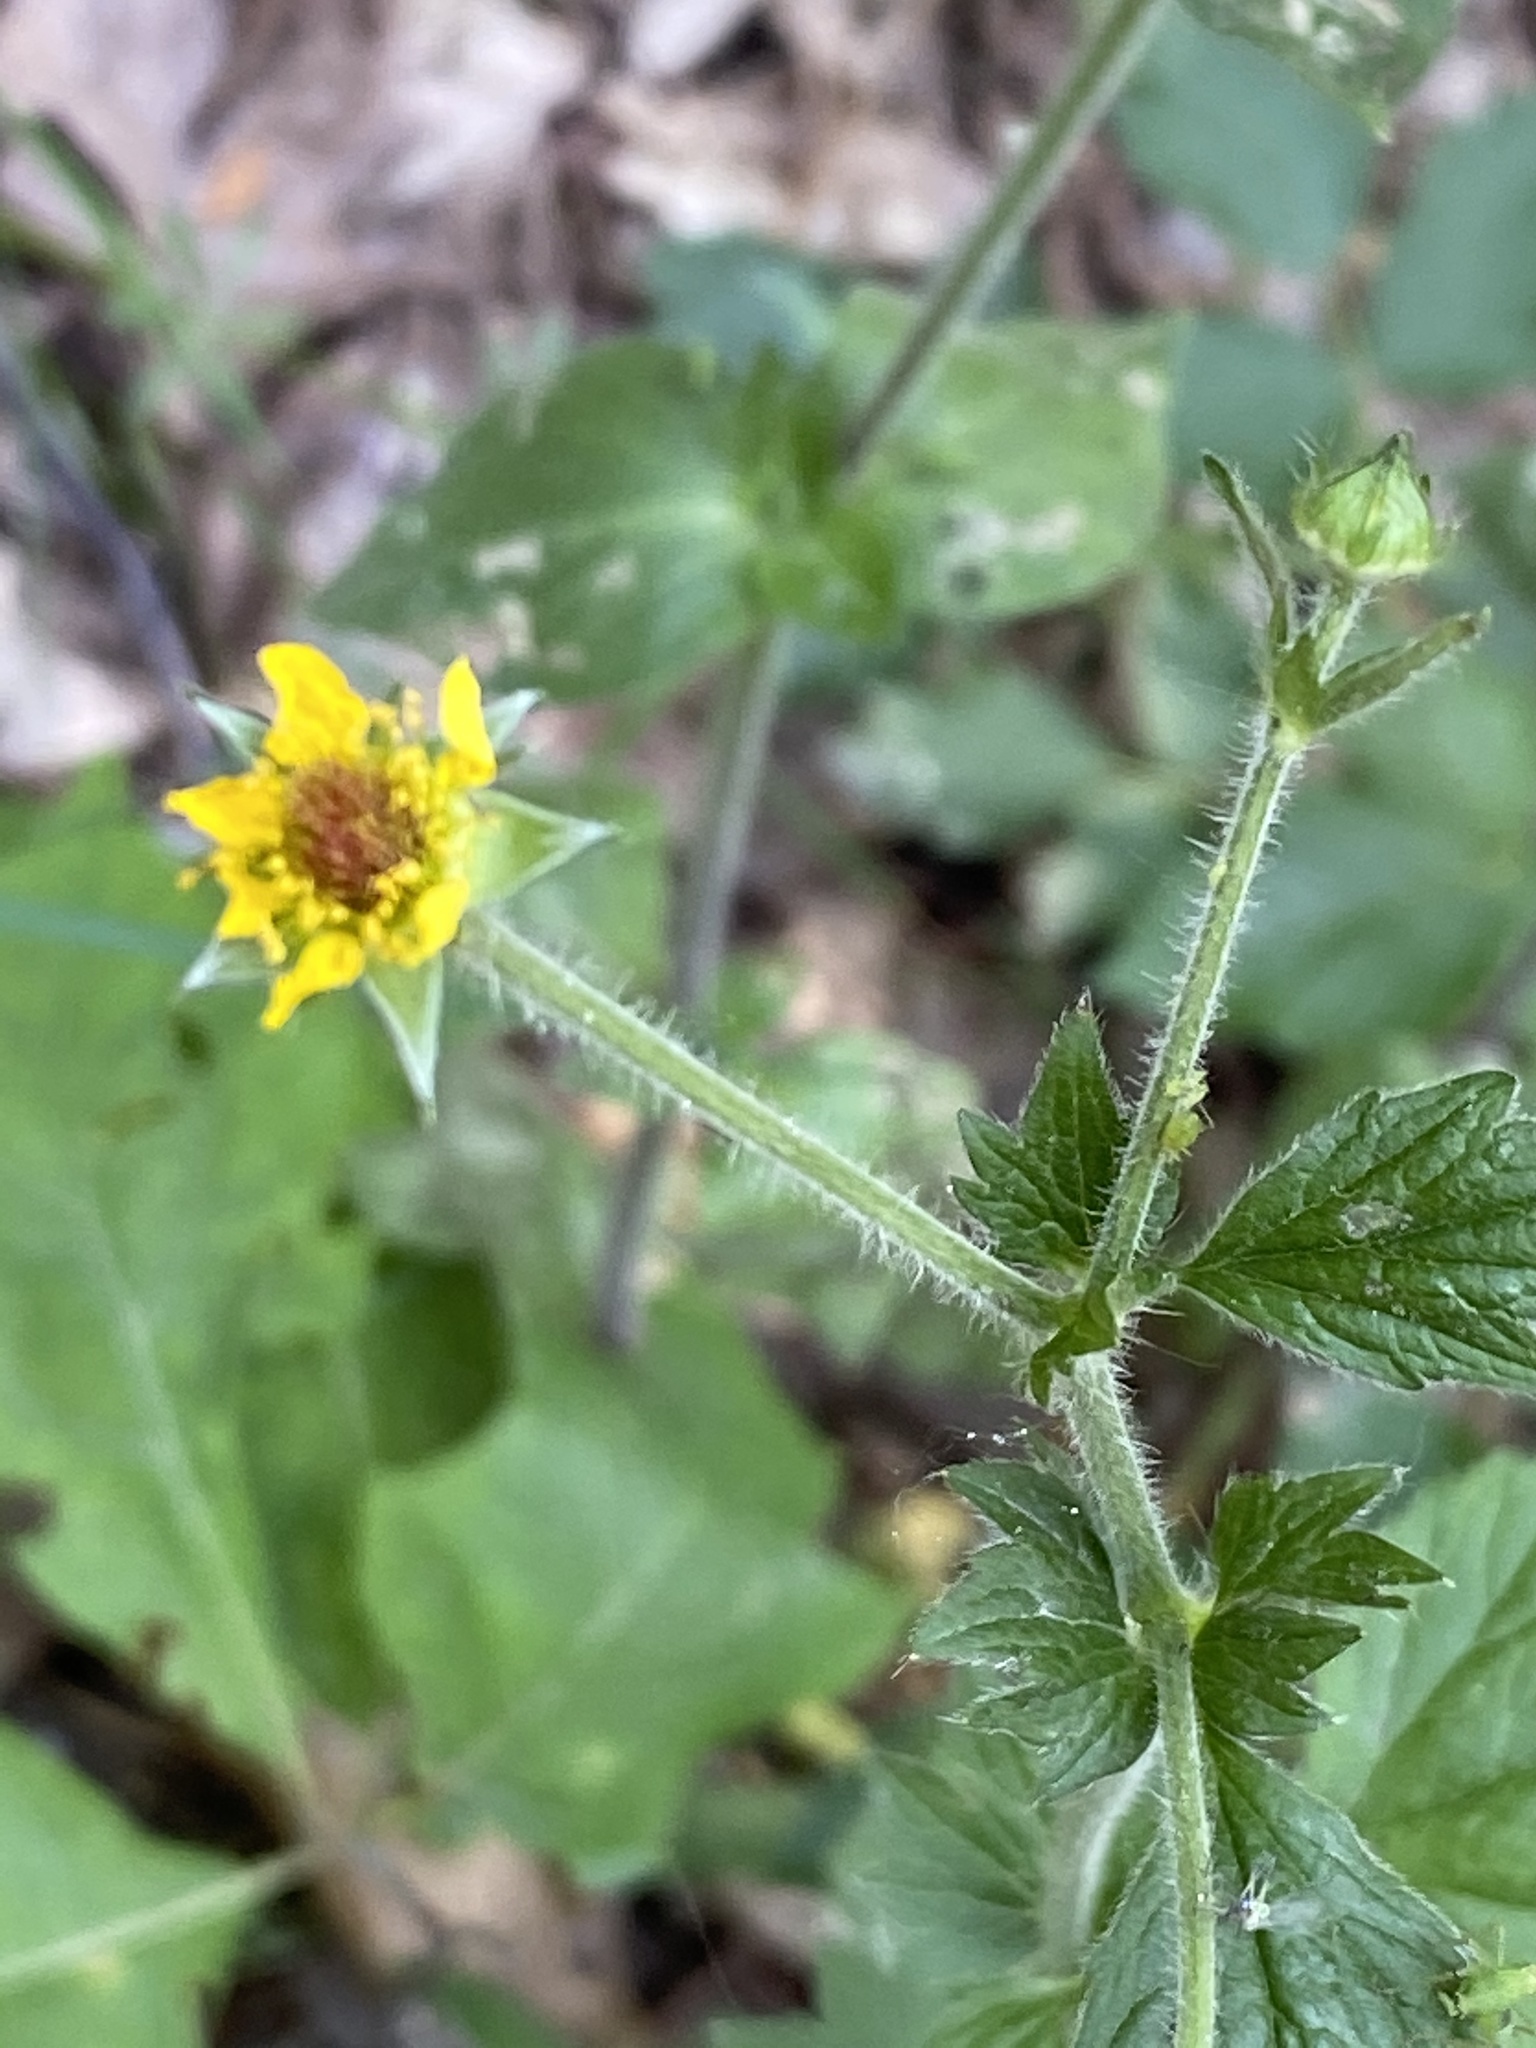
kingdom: Plantae
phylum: Tracheophyta
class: Magnoliopsida
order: Rosales
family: Rosaceae
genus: Geum
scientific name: Geum urbanum
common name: Wood avens
